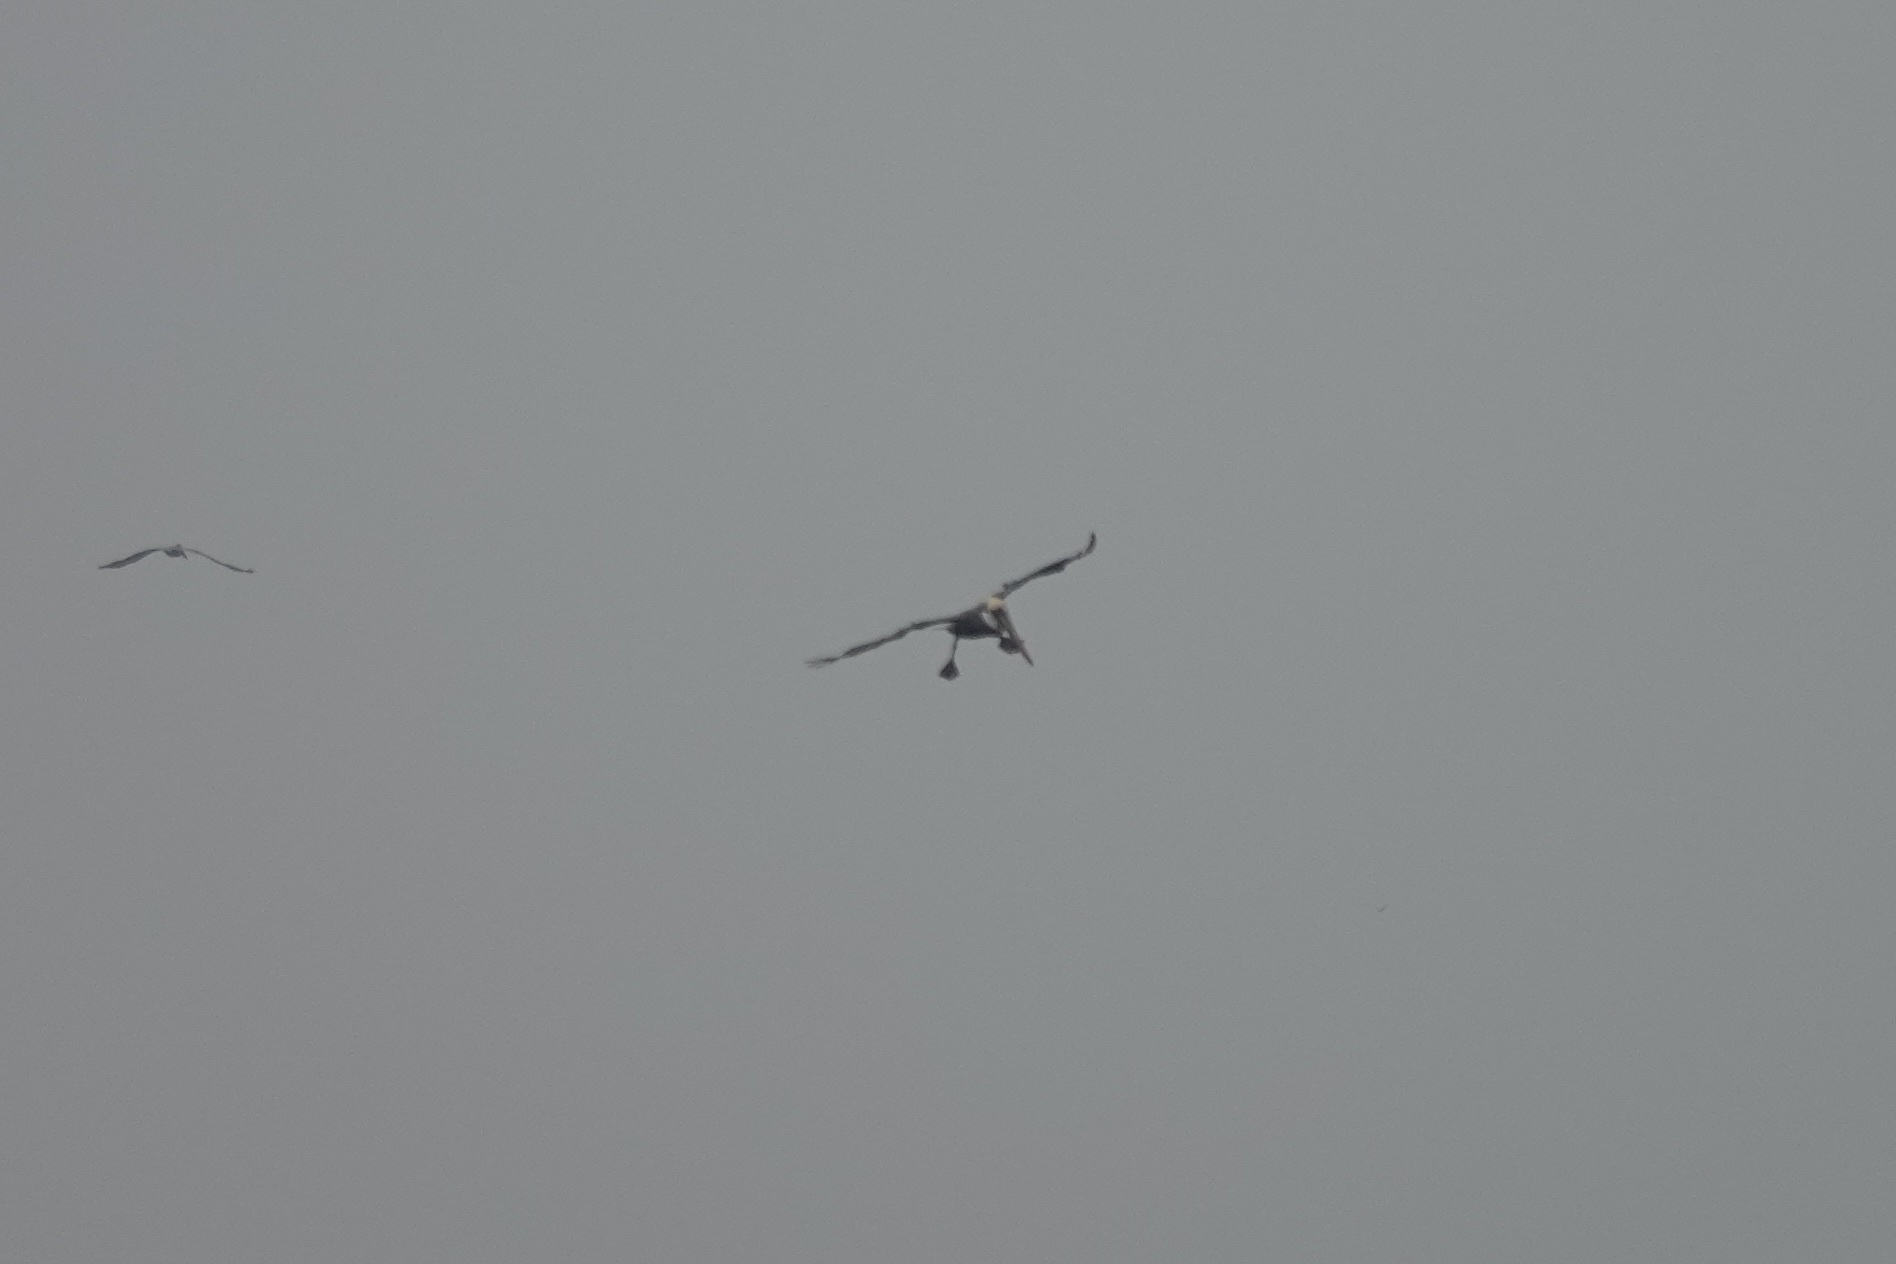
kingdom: Animalia
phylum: Chordata
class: Aves
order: Pelecaniformes
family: Pelecanidae
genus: Pelecanus
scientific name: Pelecanus occidentalis
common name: Brown pelican
